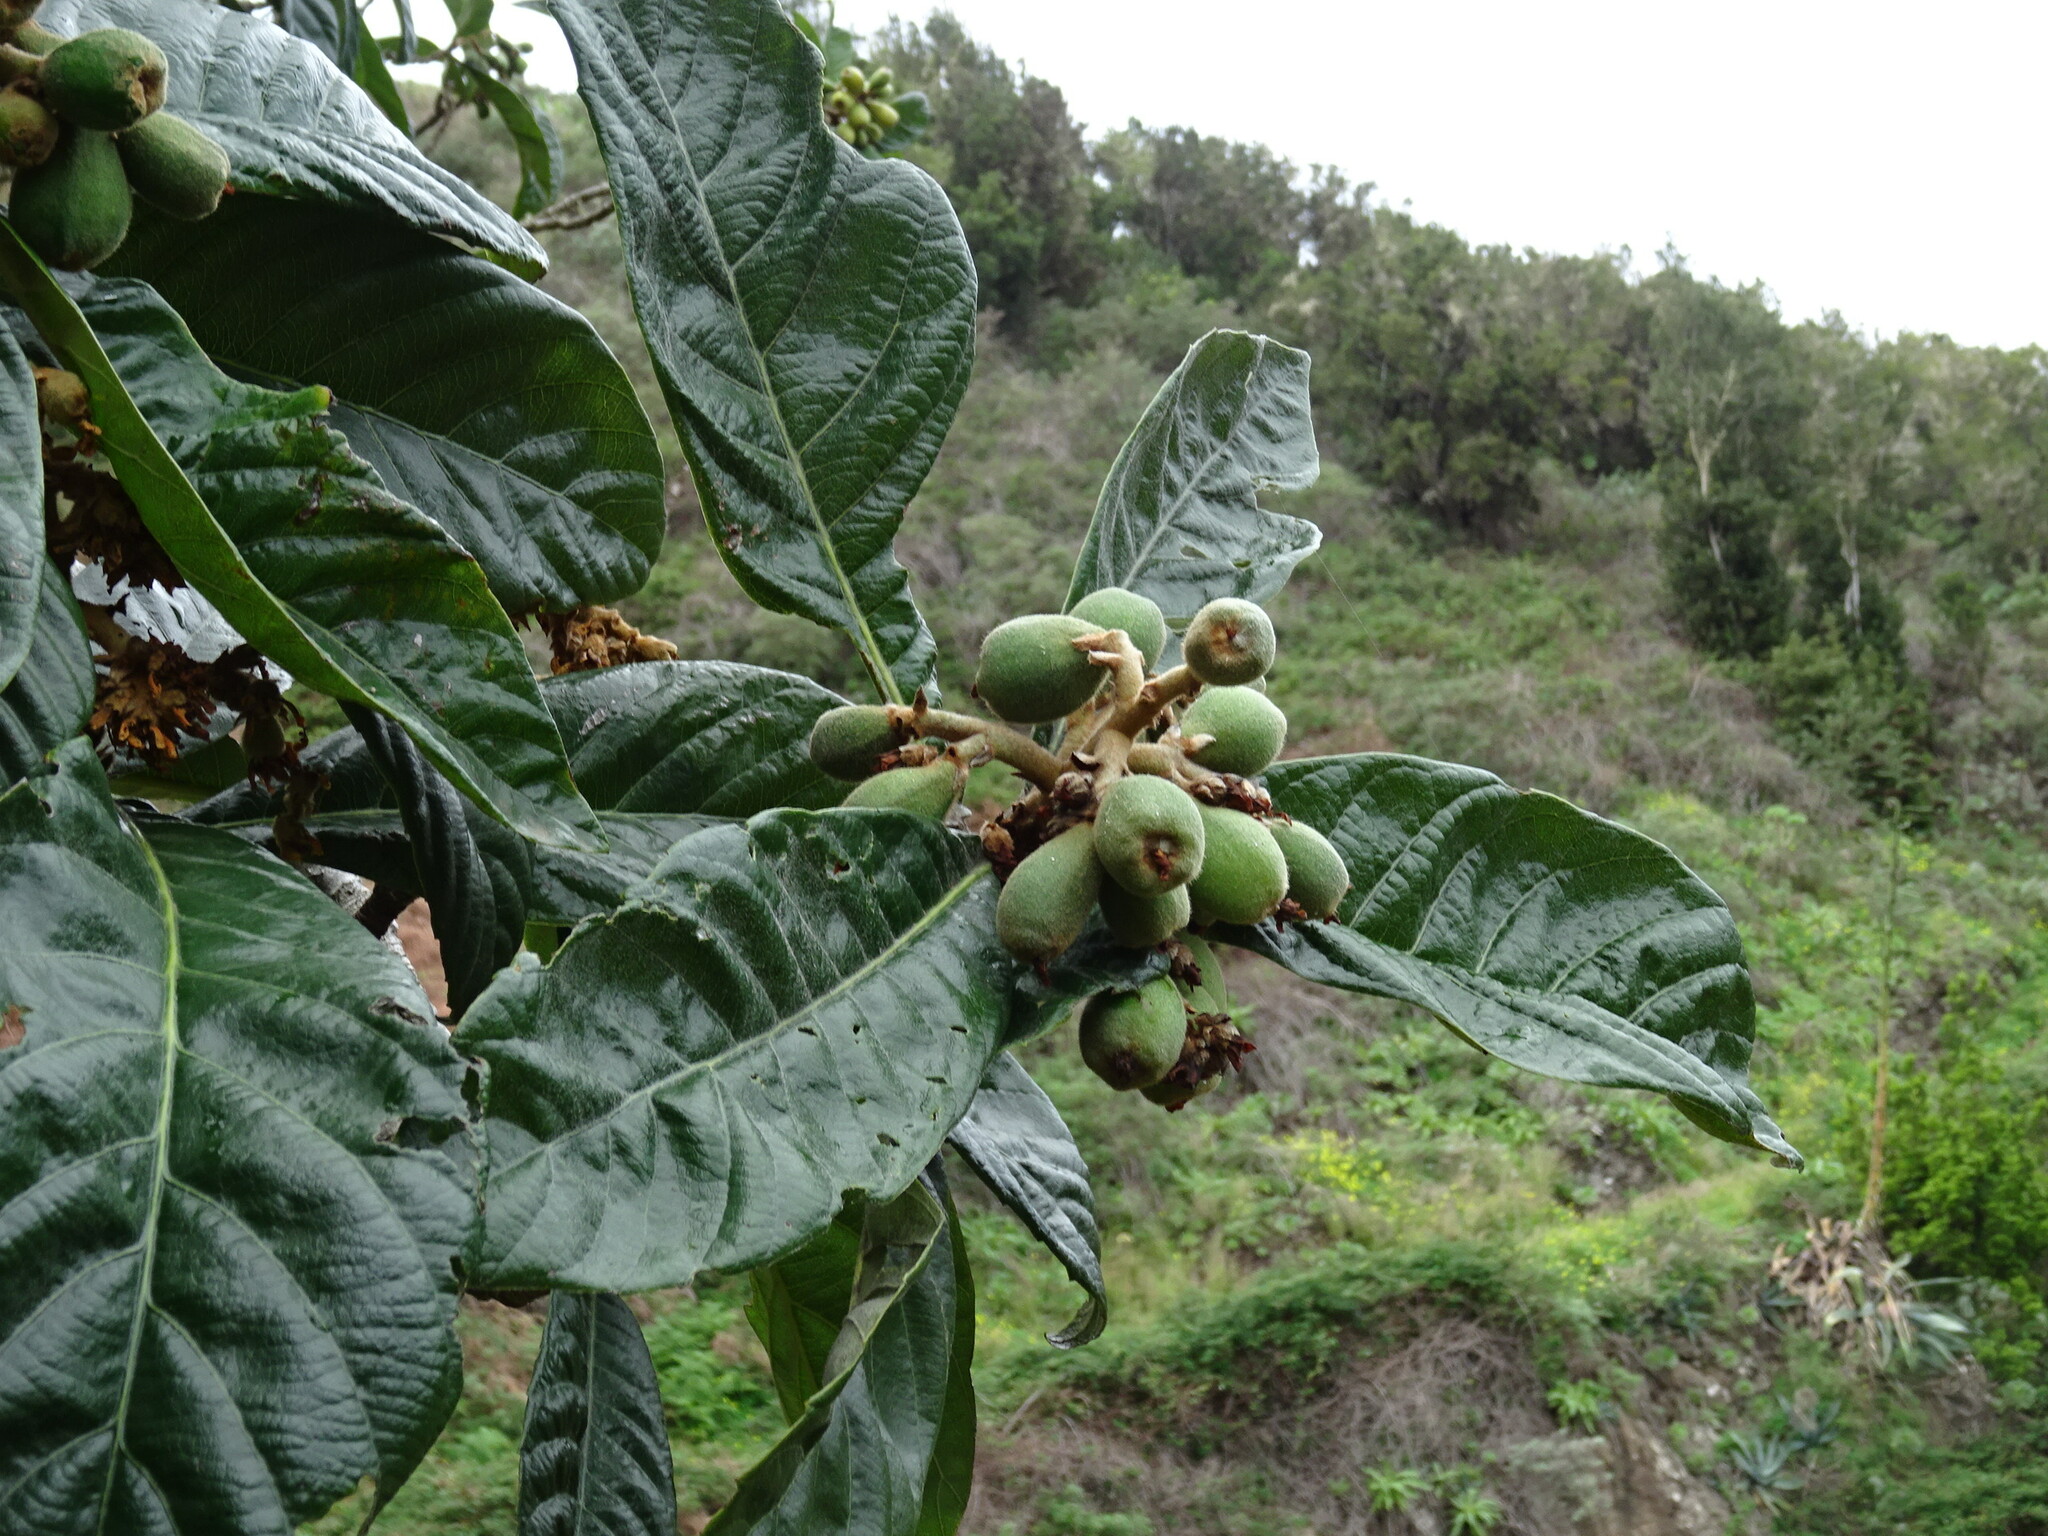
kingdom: Plantae
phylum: Tracheophyta
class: Magnoliopsida
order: Rosales
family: Rosaceae
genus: Rhaphiolepis
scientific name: Rhaphiolepis bibas
